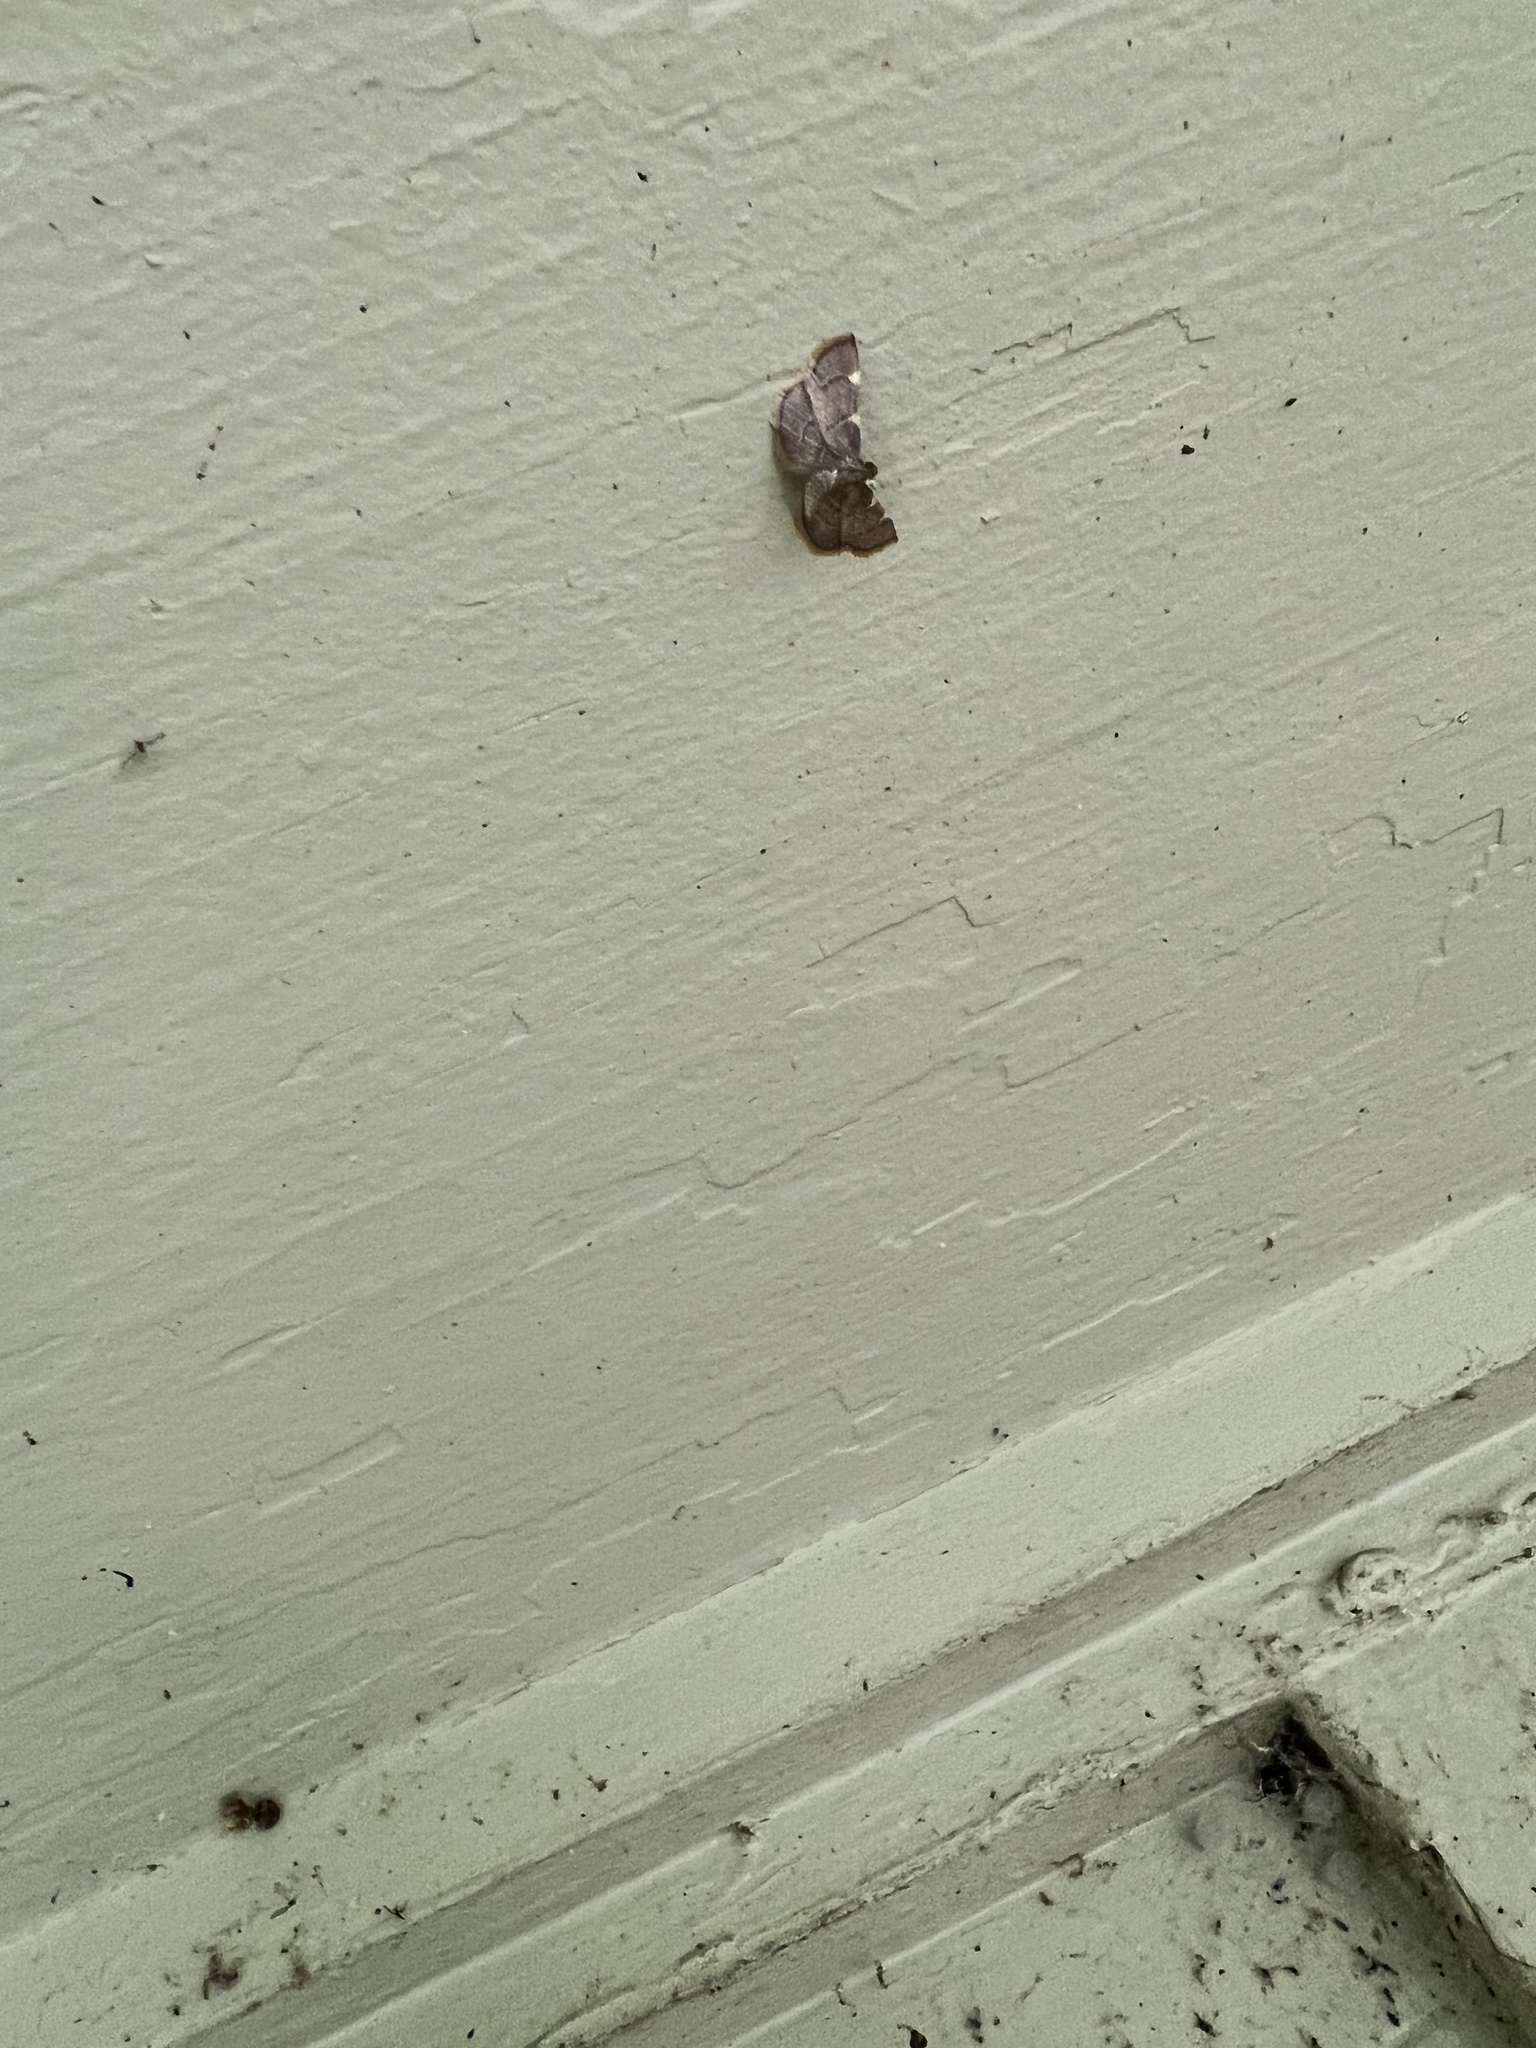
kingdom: Animalia
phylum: Arthropoda
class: Insecta
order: Lepidoptera
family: Pyralidae
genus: Hypsopygia
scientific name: Hypsopygia olinalis
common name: Yellow-fringed dolichomia moth
